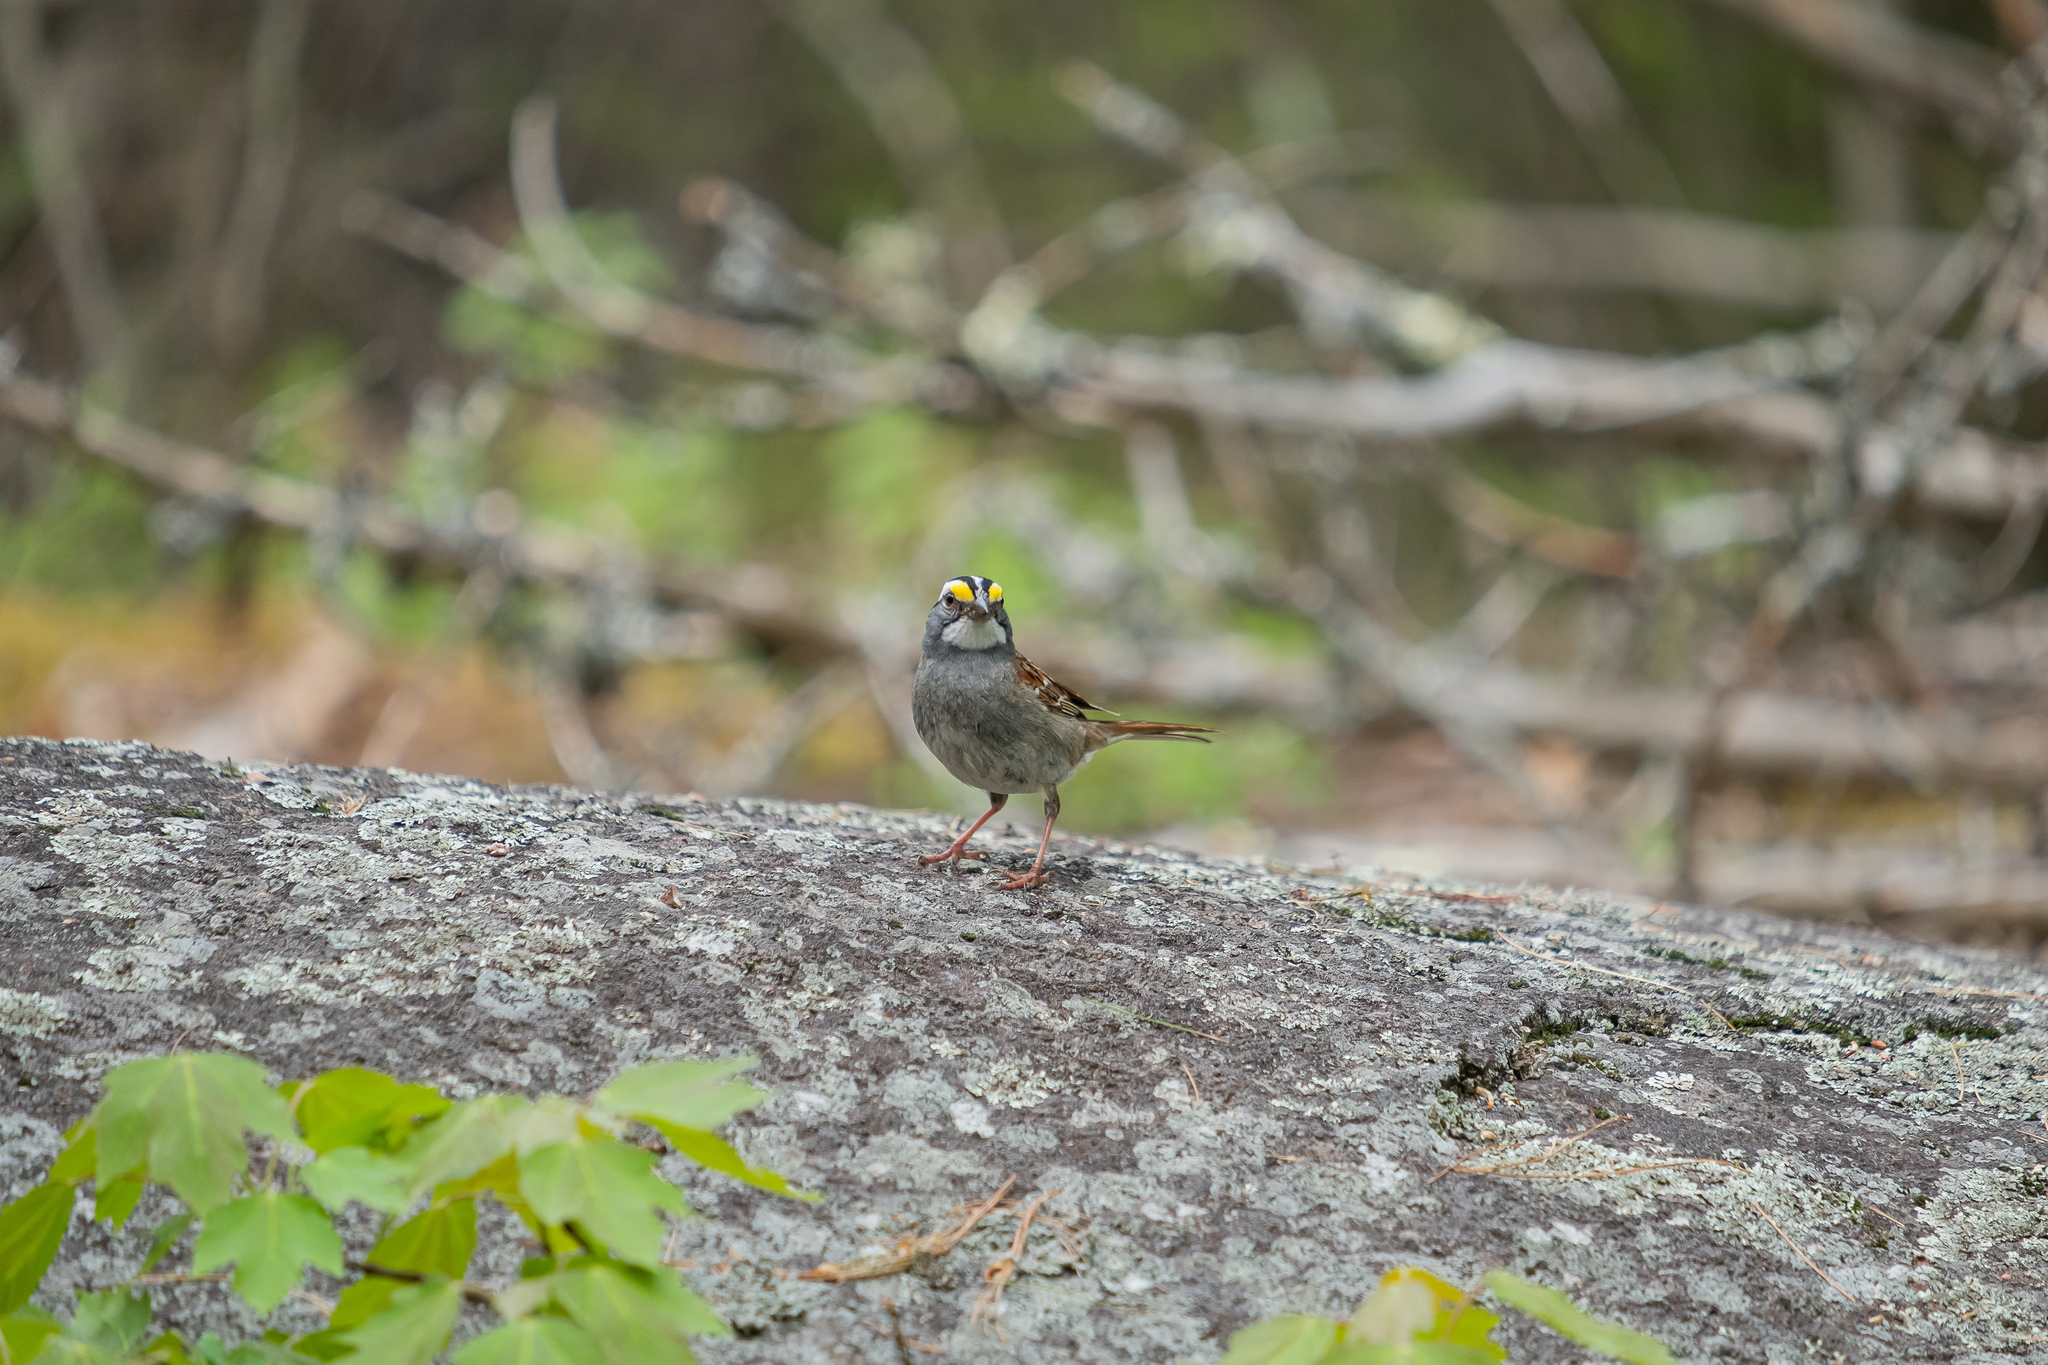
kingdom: Animalia
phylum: Chordata
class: Aves
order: Passeriformes
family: Passerellidae
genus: Zonotrichia
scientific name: Zonotrichia albicollis
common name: White-throated sparrow
